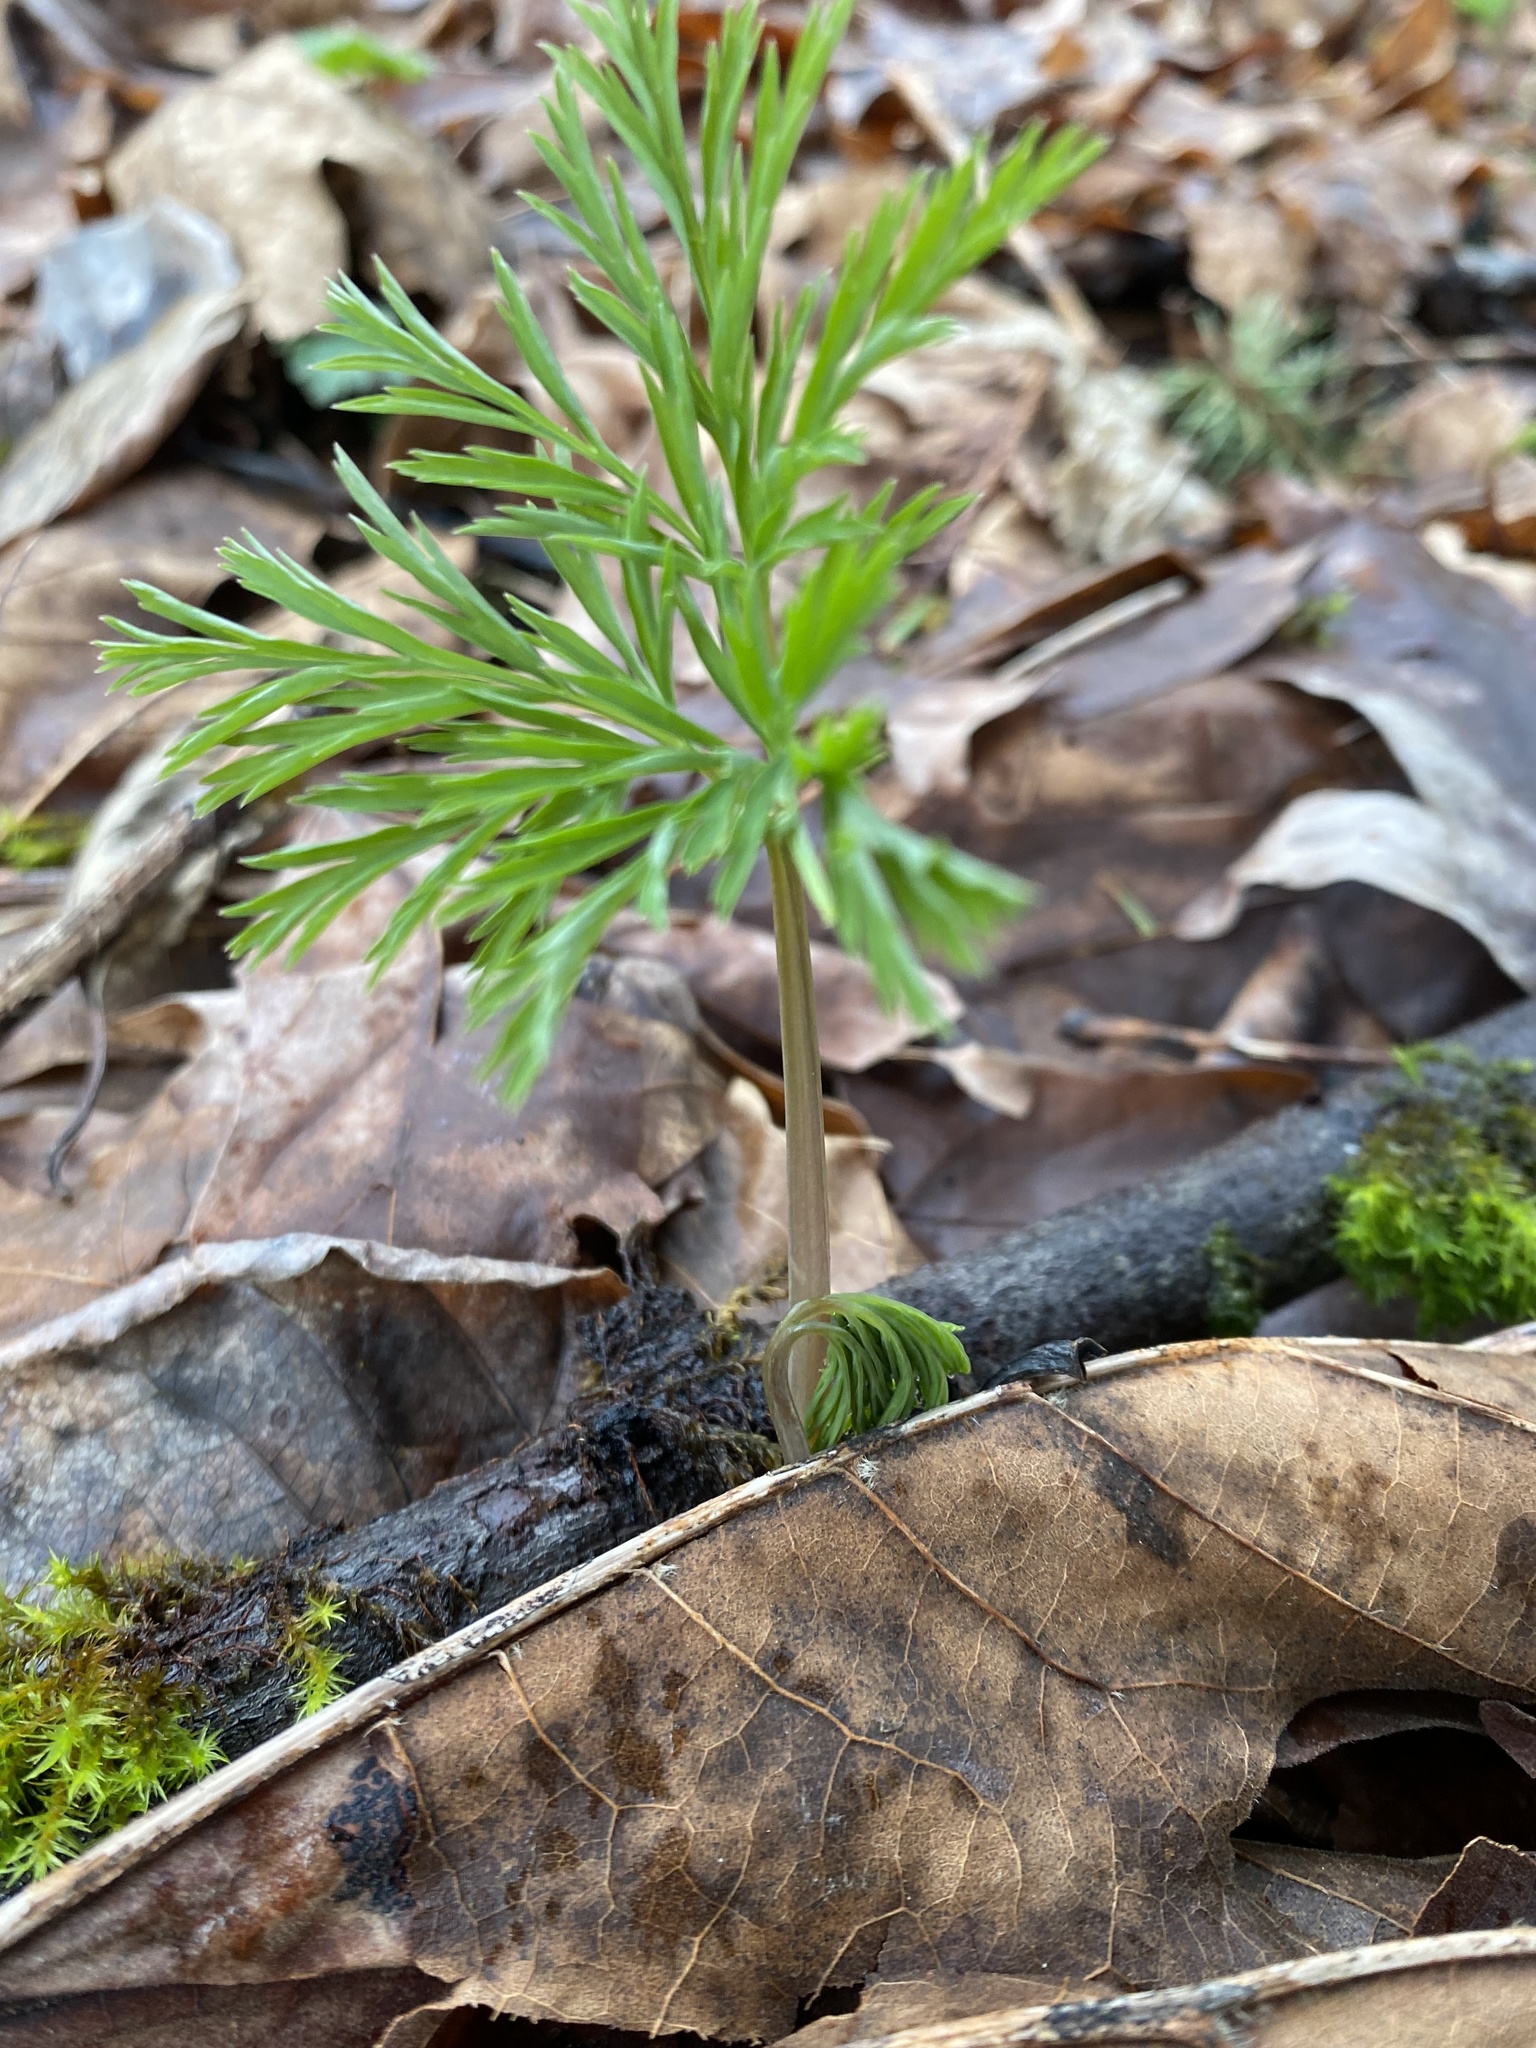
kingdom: Plantae
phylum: Tracheophyta
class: Magnoliopsida
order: Ranunculales
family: Papaveraceae
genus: Dicentra
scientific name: Dicentra formosa
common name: Bleeding-heart
